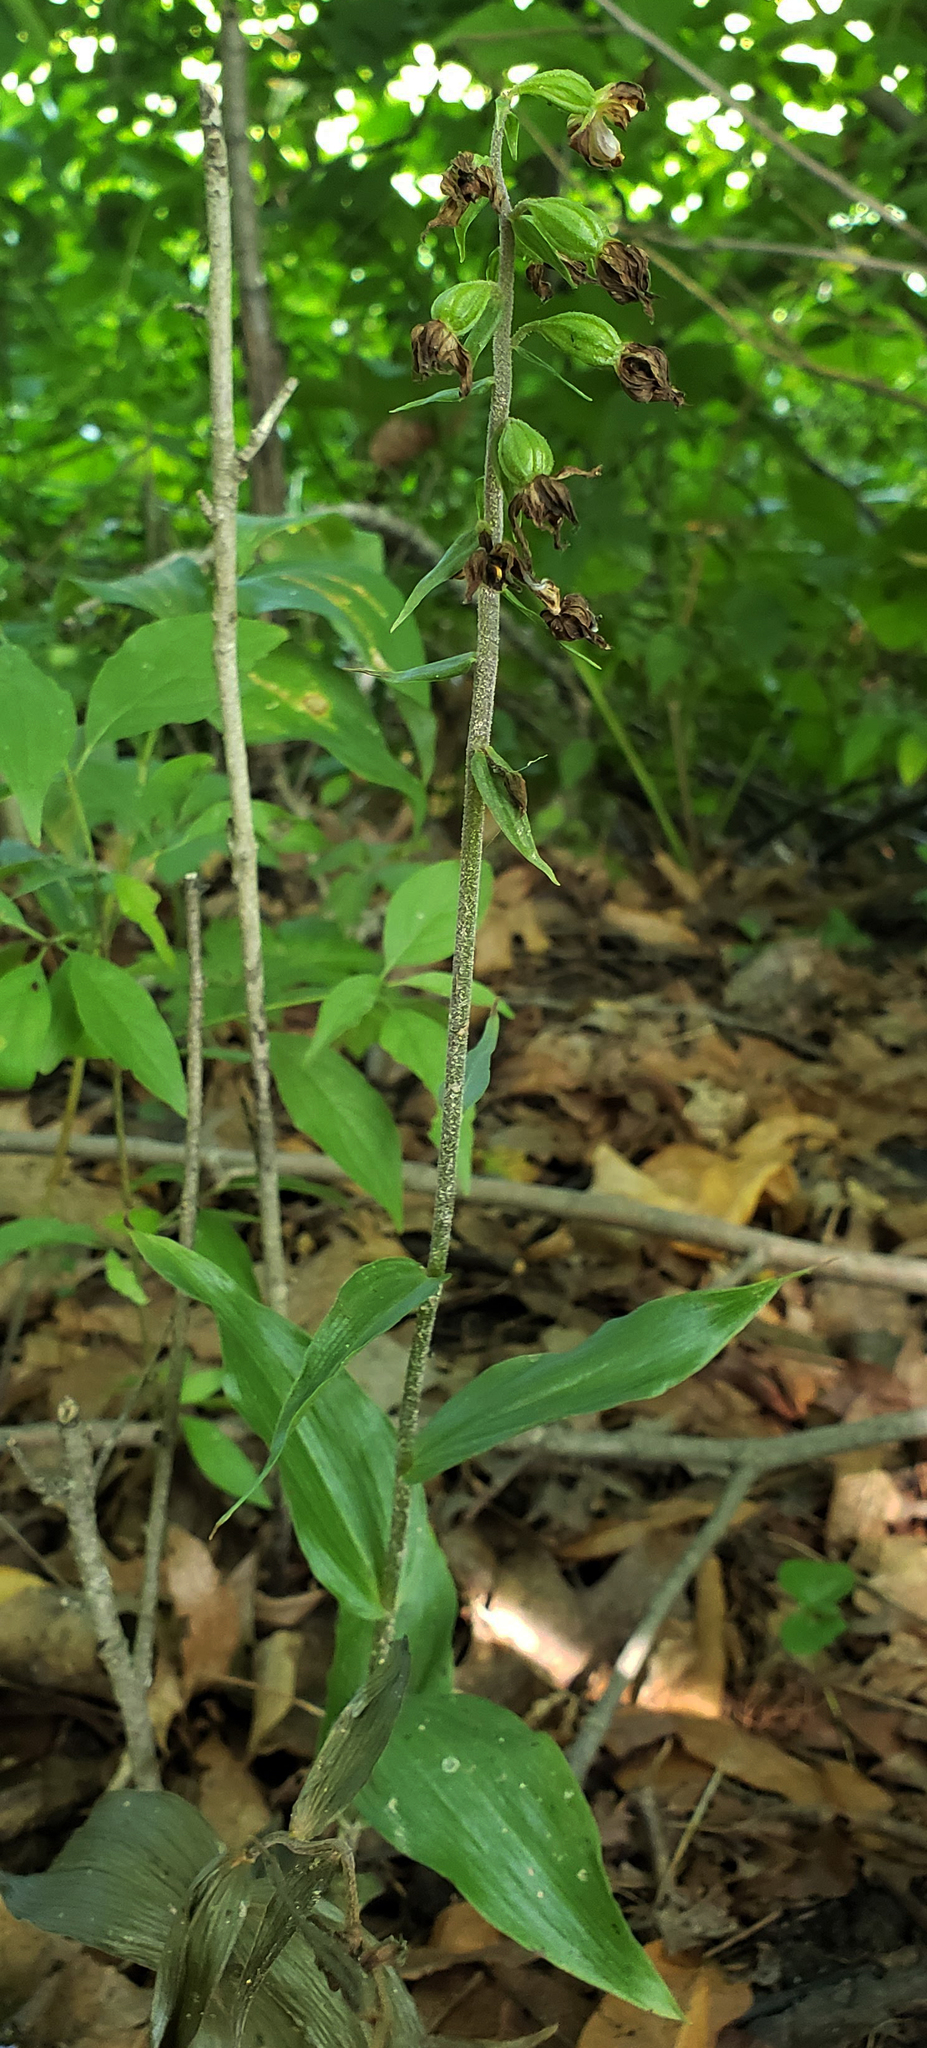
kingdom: Plantae
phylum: Tracheophyta
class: Liliopsida
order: Asparagales
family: Orchidaceae
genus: Epipactis
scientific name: Epipactis helleborine
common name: Broad-leaved helleborine
